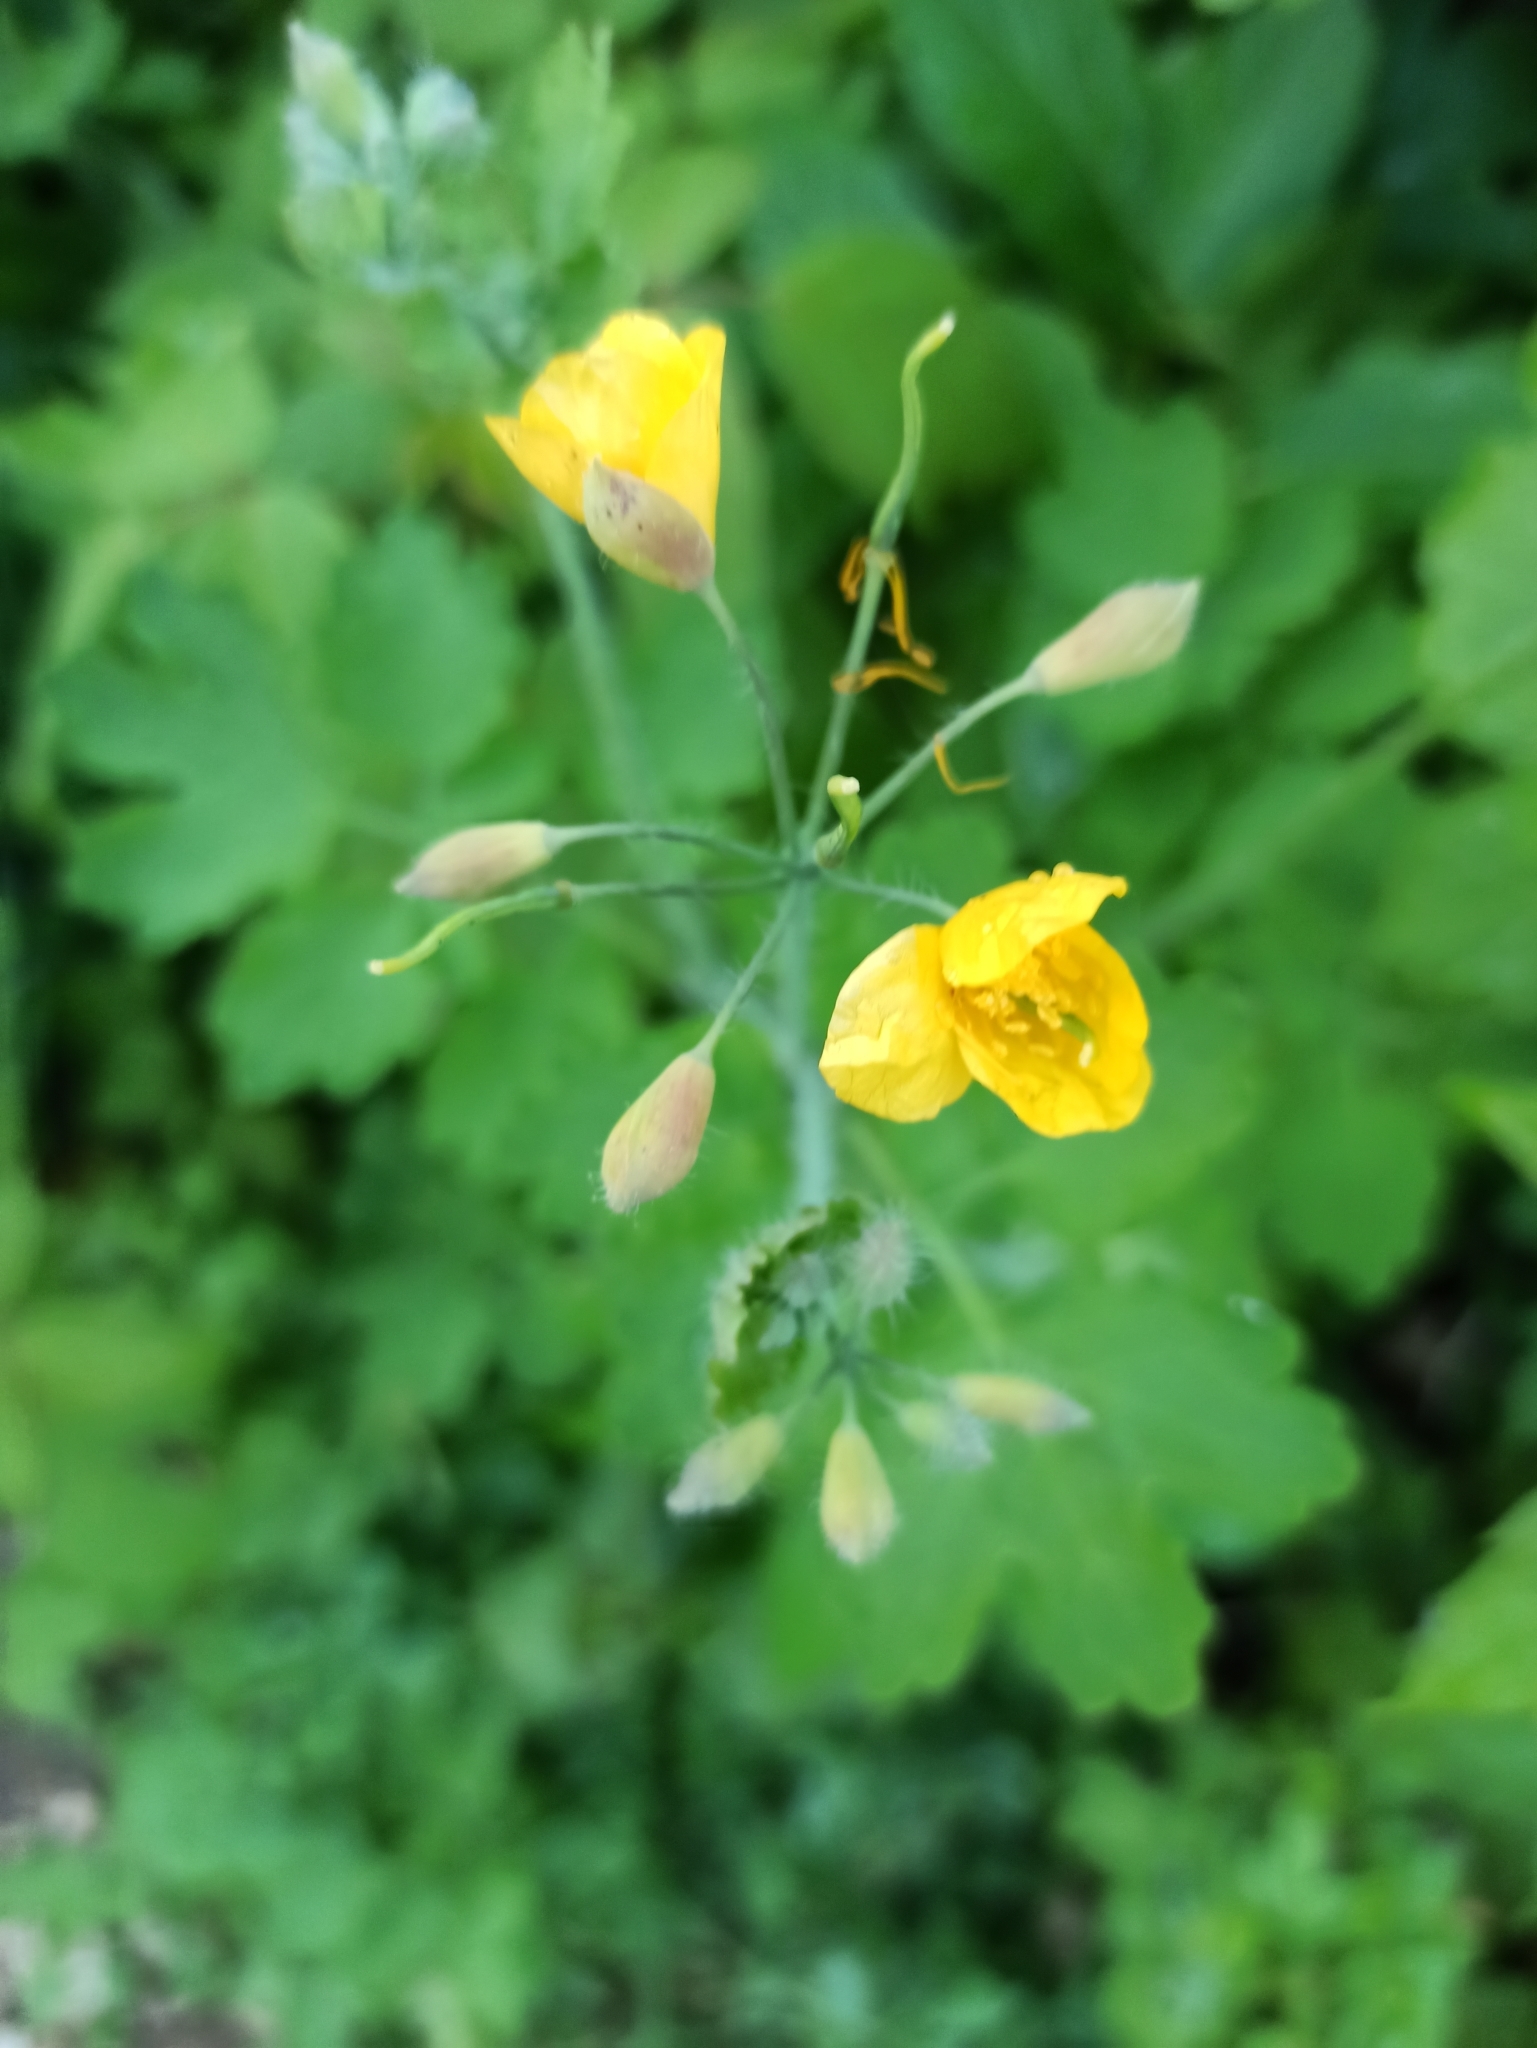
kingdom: Plantae
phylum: Tracheophyta
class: Magnoliopsida
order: Ranunculales
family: Papaveraceae
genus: Chelidonium
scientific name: Chelidonium majus
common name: Greater celandine
